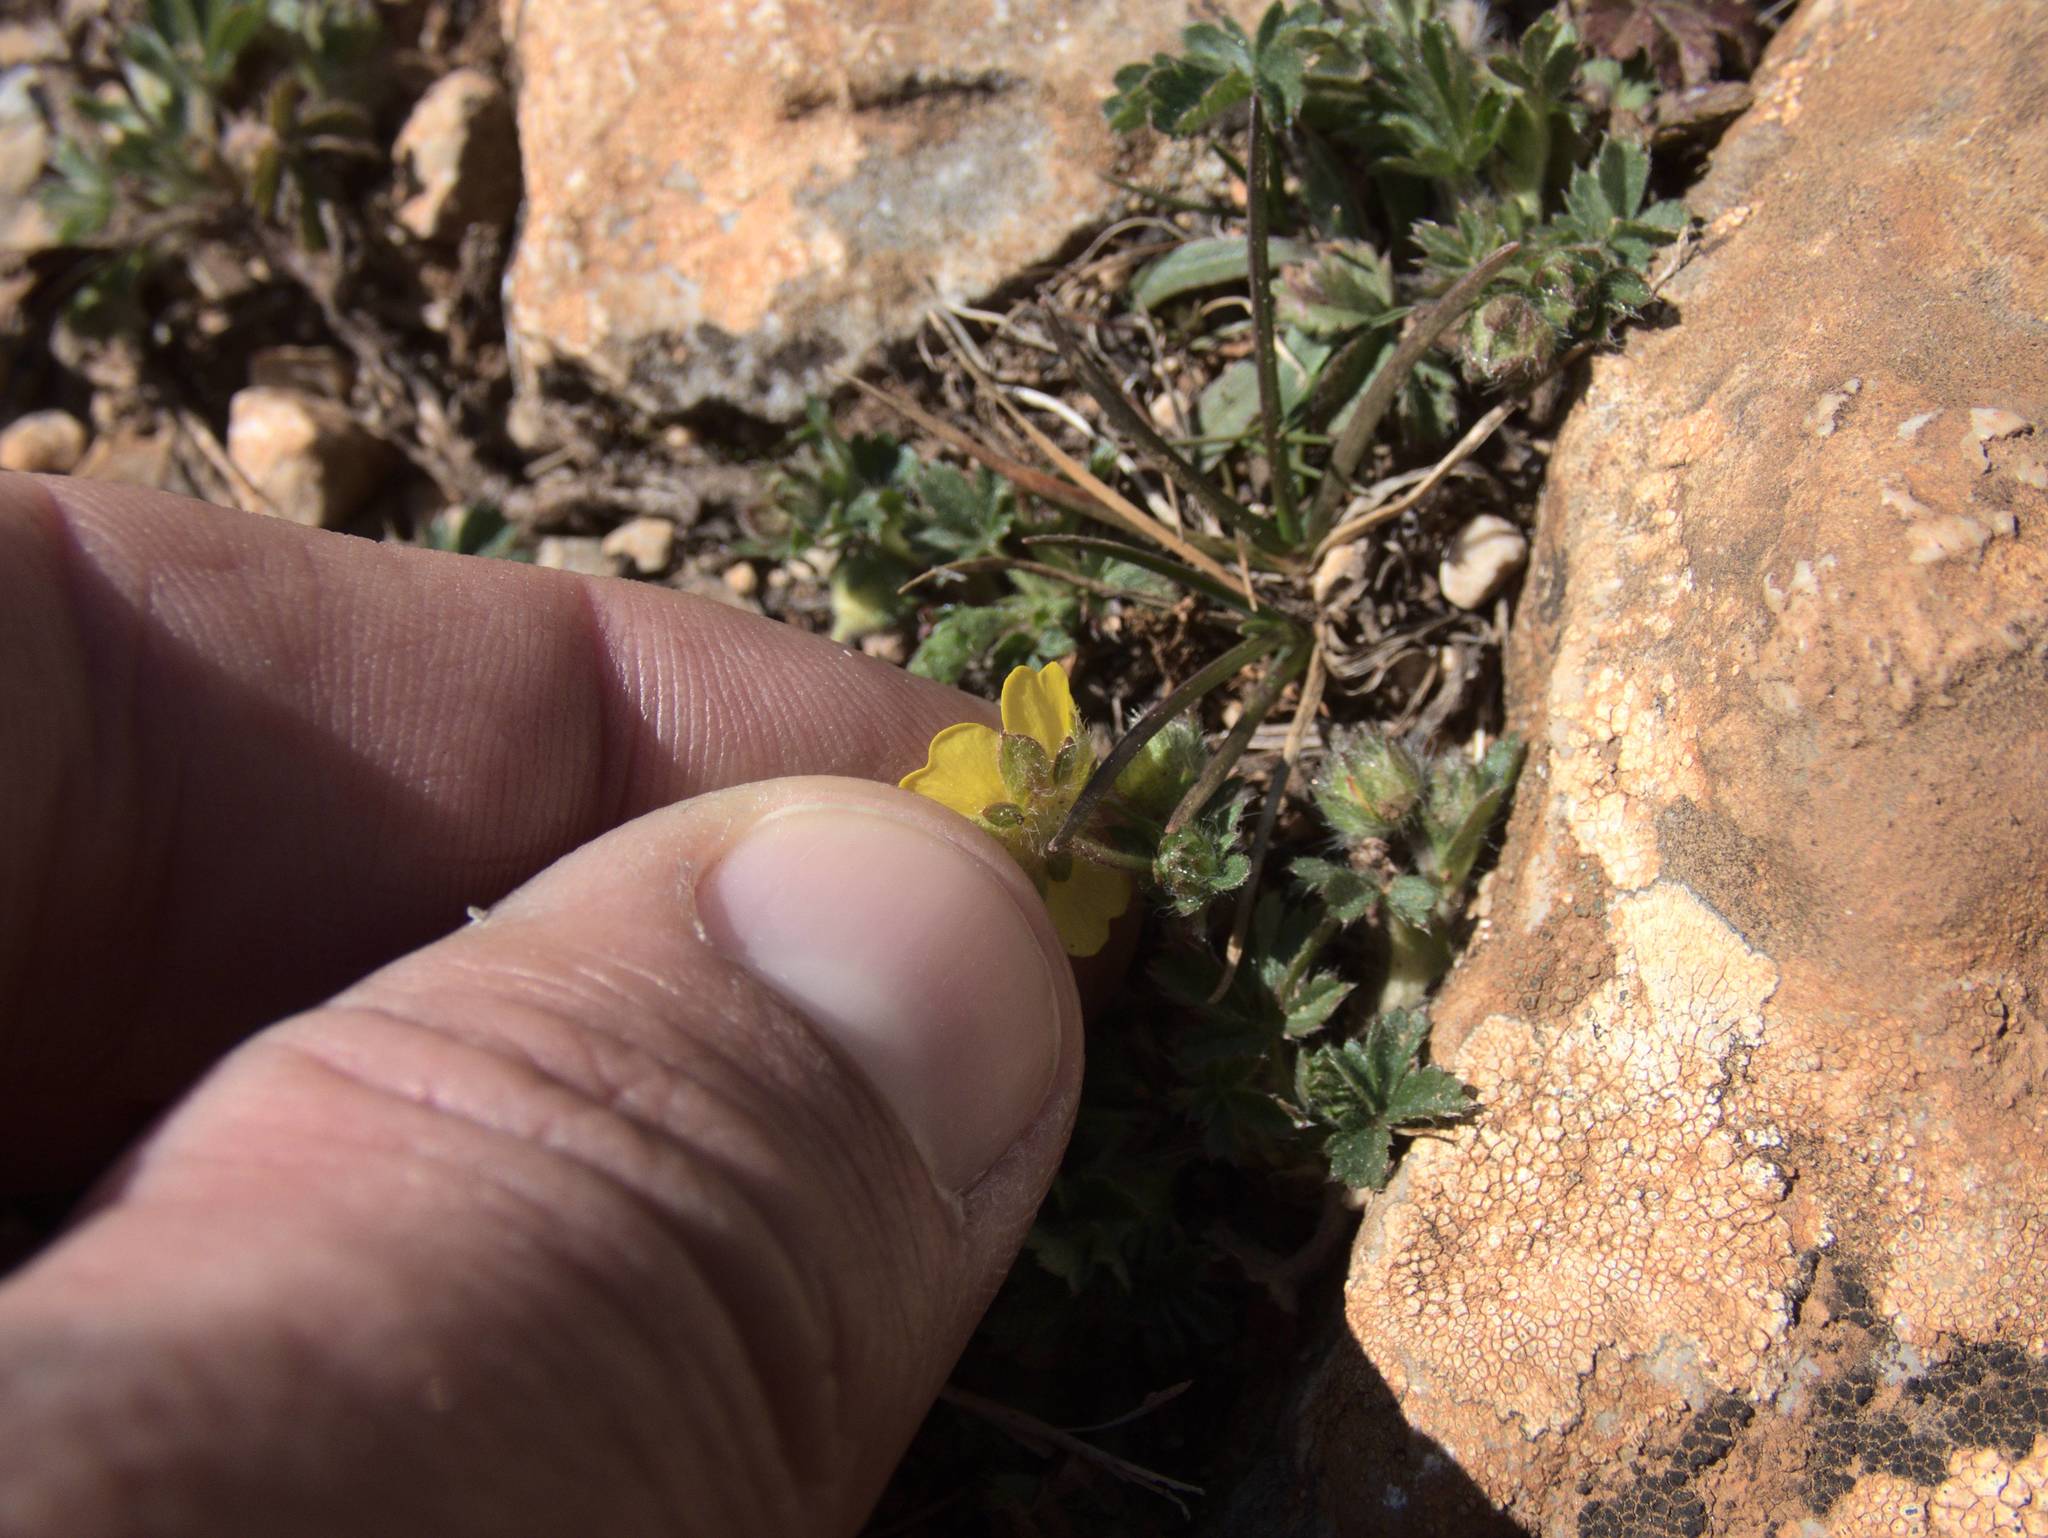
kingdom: Plantae
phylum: Tracheophyta
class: Magnoliopsida
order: Rosales
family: Rosaceae
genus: Potentilla
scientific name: Potentilla verna
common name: Spring cinquefoil
